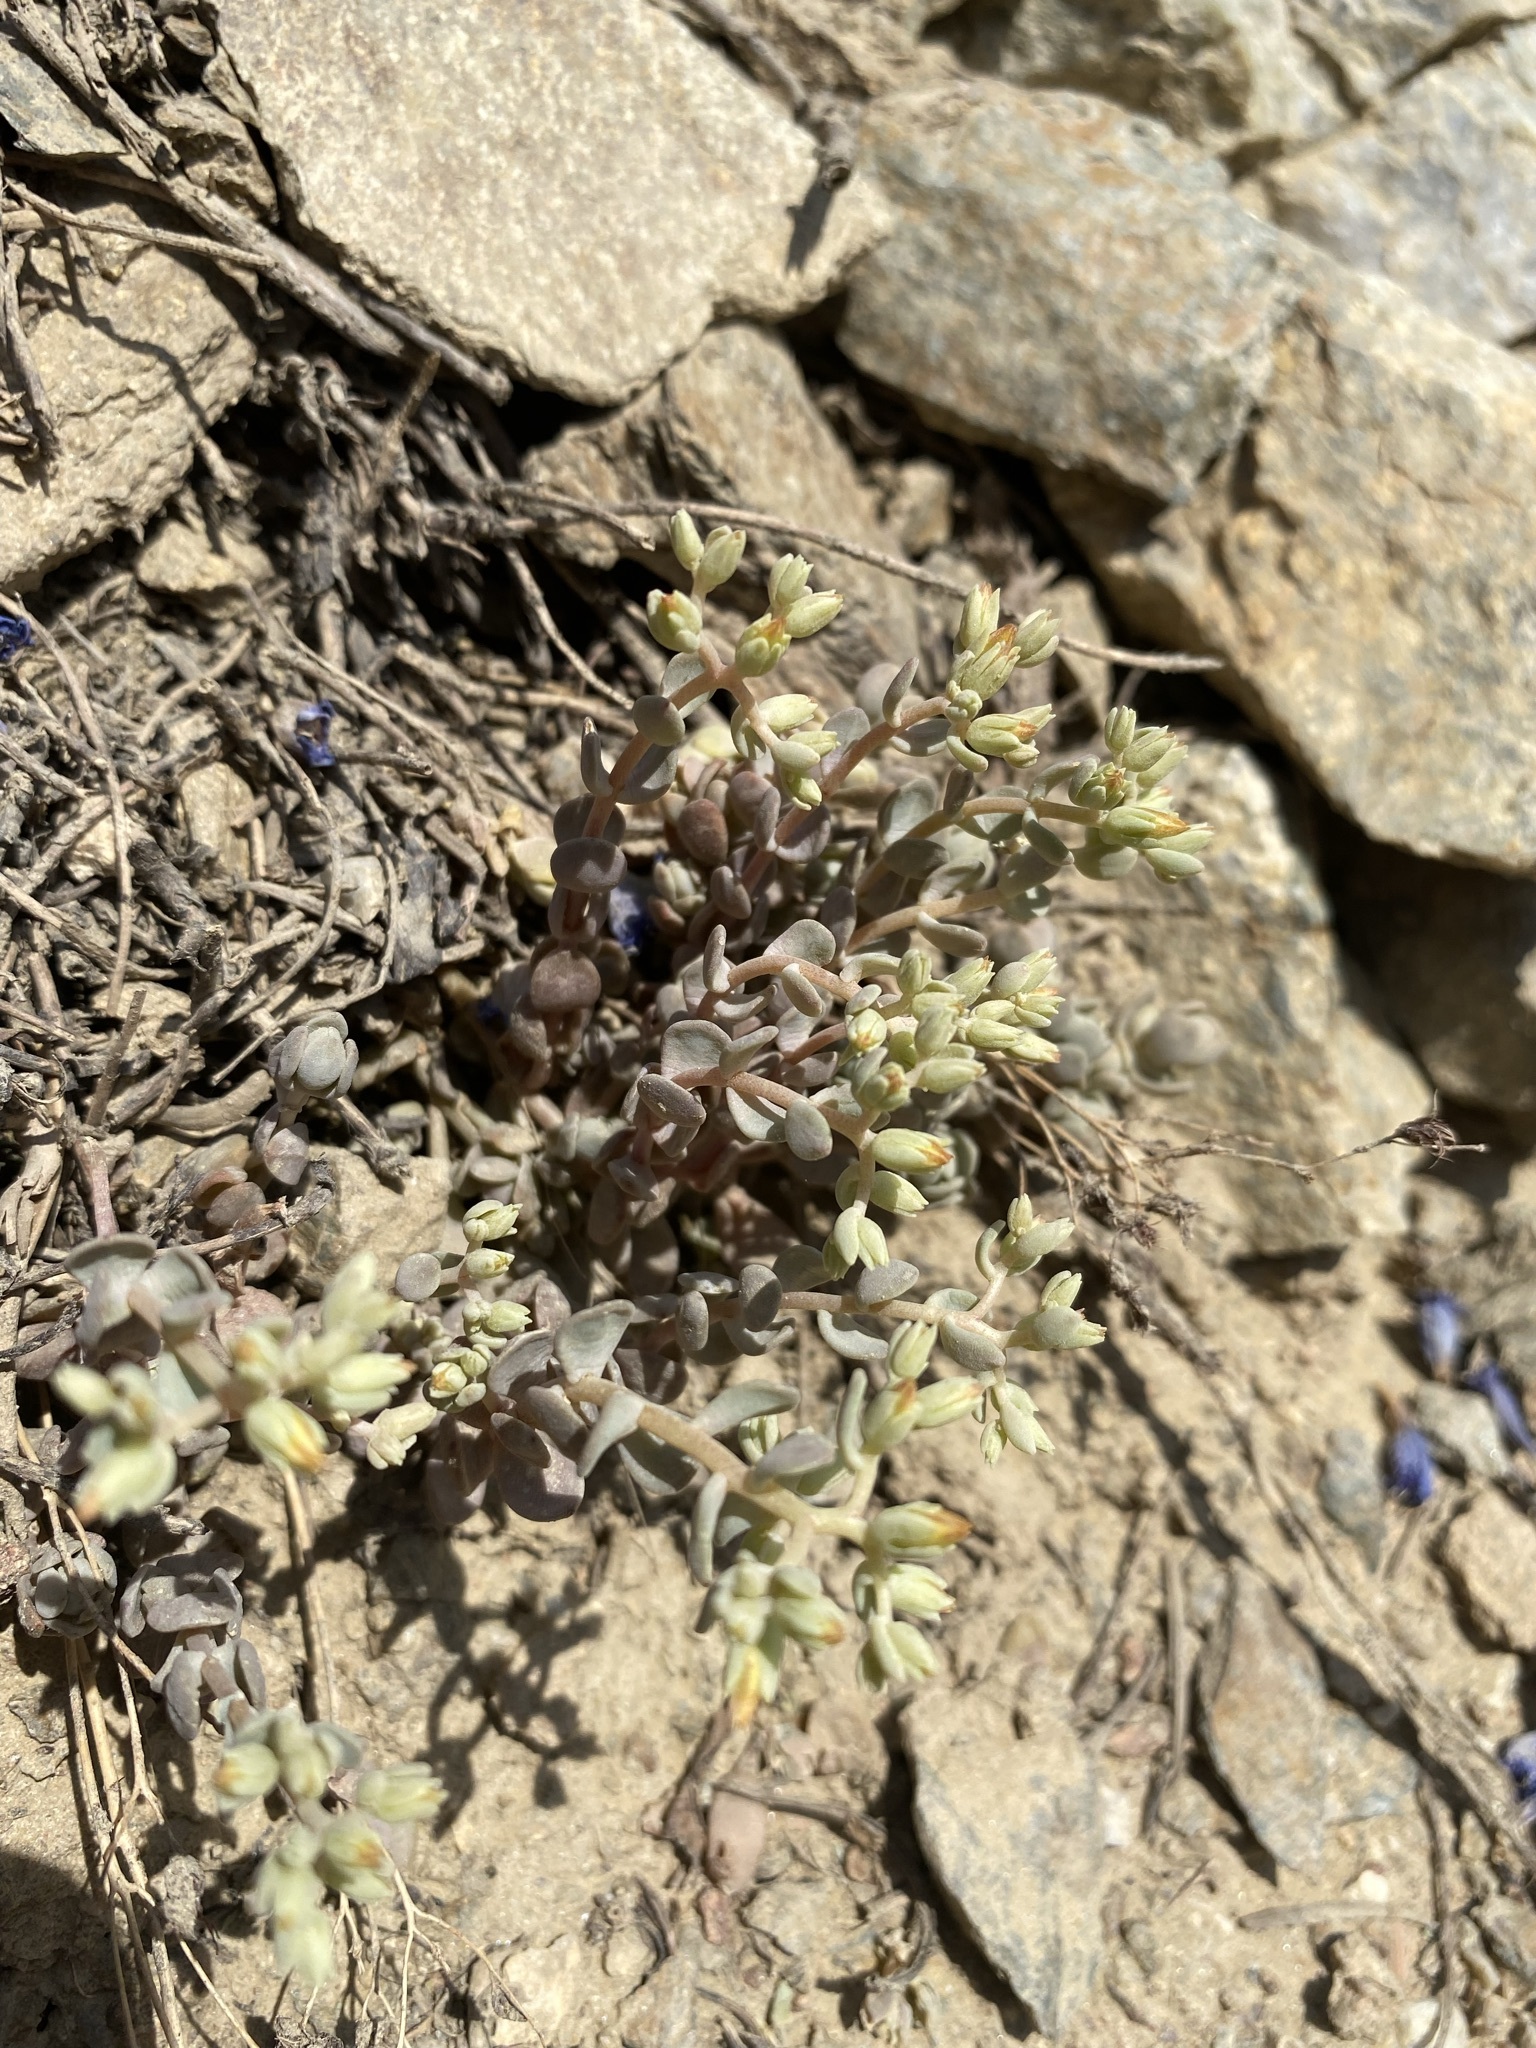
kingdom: Plantae
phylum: Tracheophyta
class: Magnoliopsida
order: Saxifragales
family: Crassulaceae
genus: Sedum
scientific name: Sedum debile
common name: Weak-stem stonecrop
